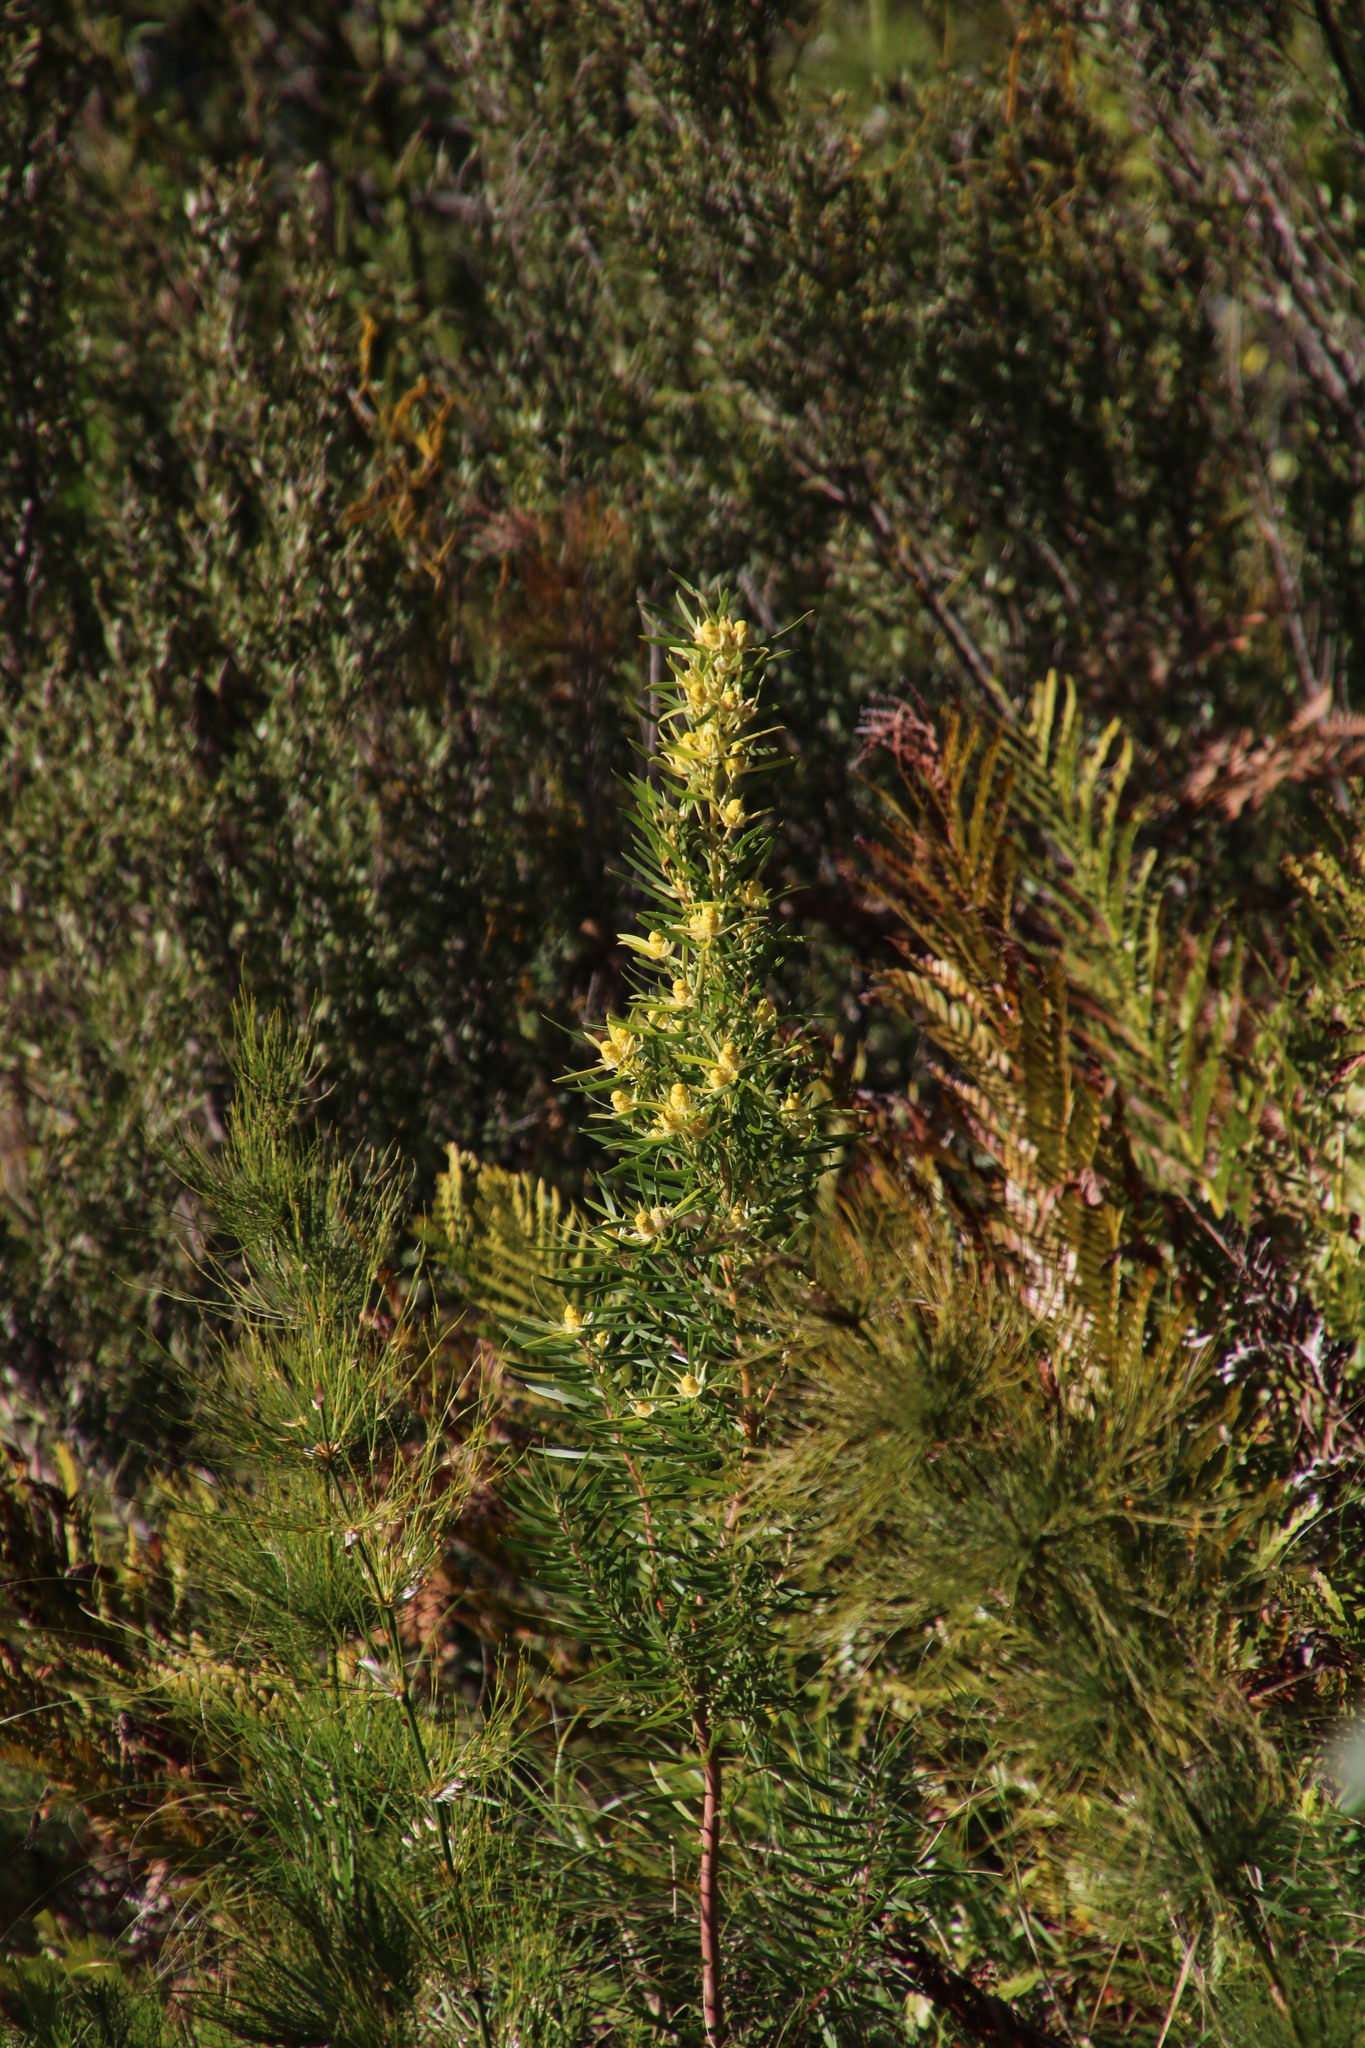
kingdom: Plantae
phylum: Tracheophyta
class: Magnoliopsida
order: Proteales
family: Proteaceae
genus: Leucadendron
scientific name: Leucadendron salicifolium
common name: Common stream conebush
